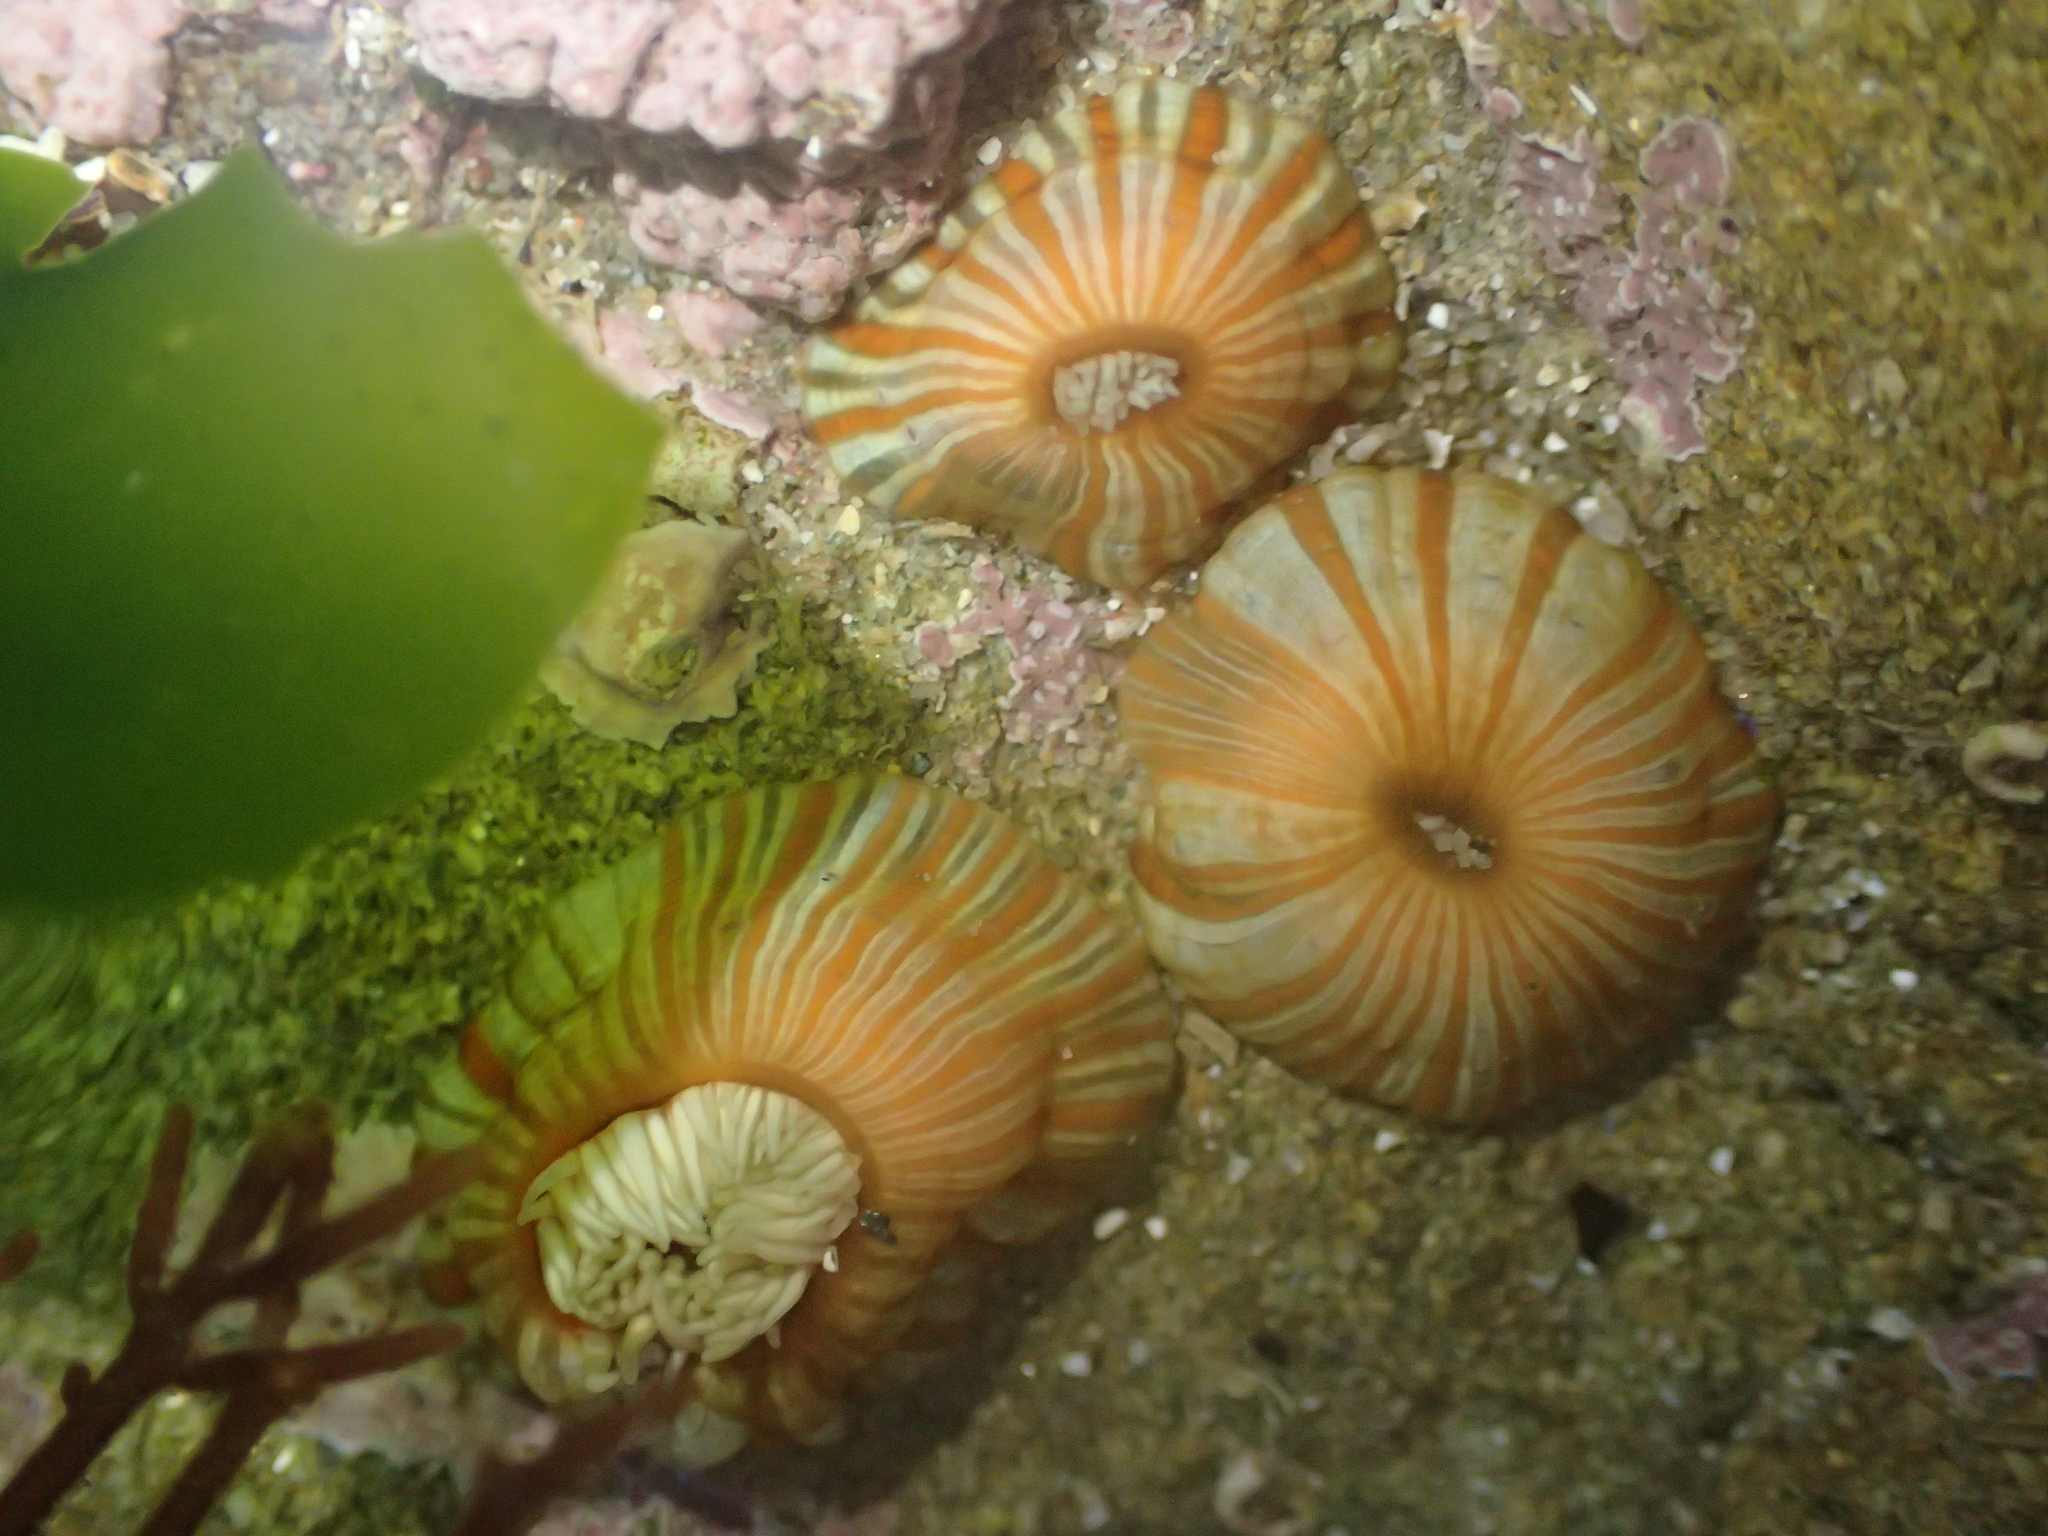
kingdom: Animalia
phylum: Cnidaria
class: Anthozoa
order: Actiniaria
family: Sagartiidae
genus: Anthothoe
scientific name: Anthothoe albocincta
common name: Orange striped anemone
